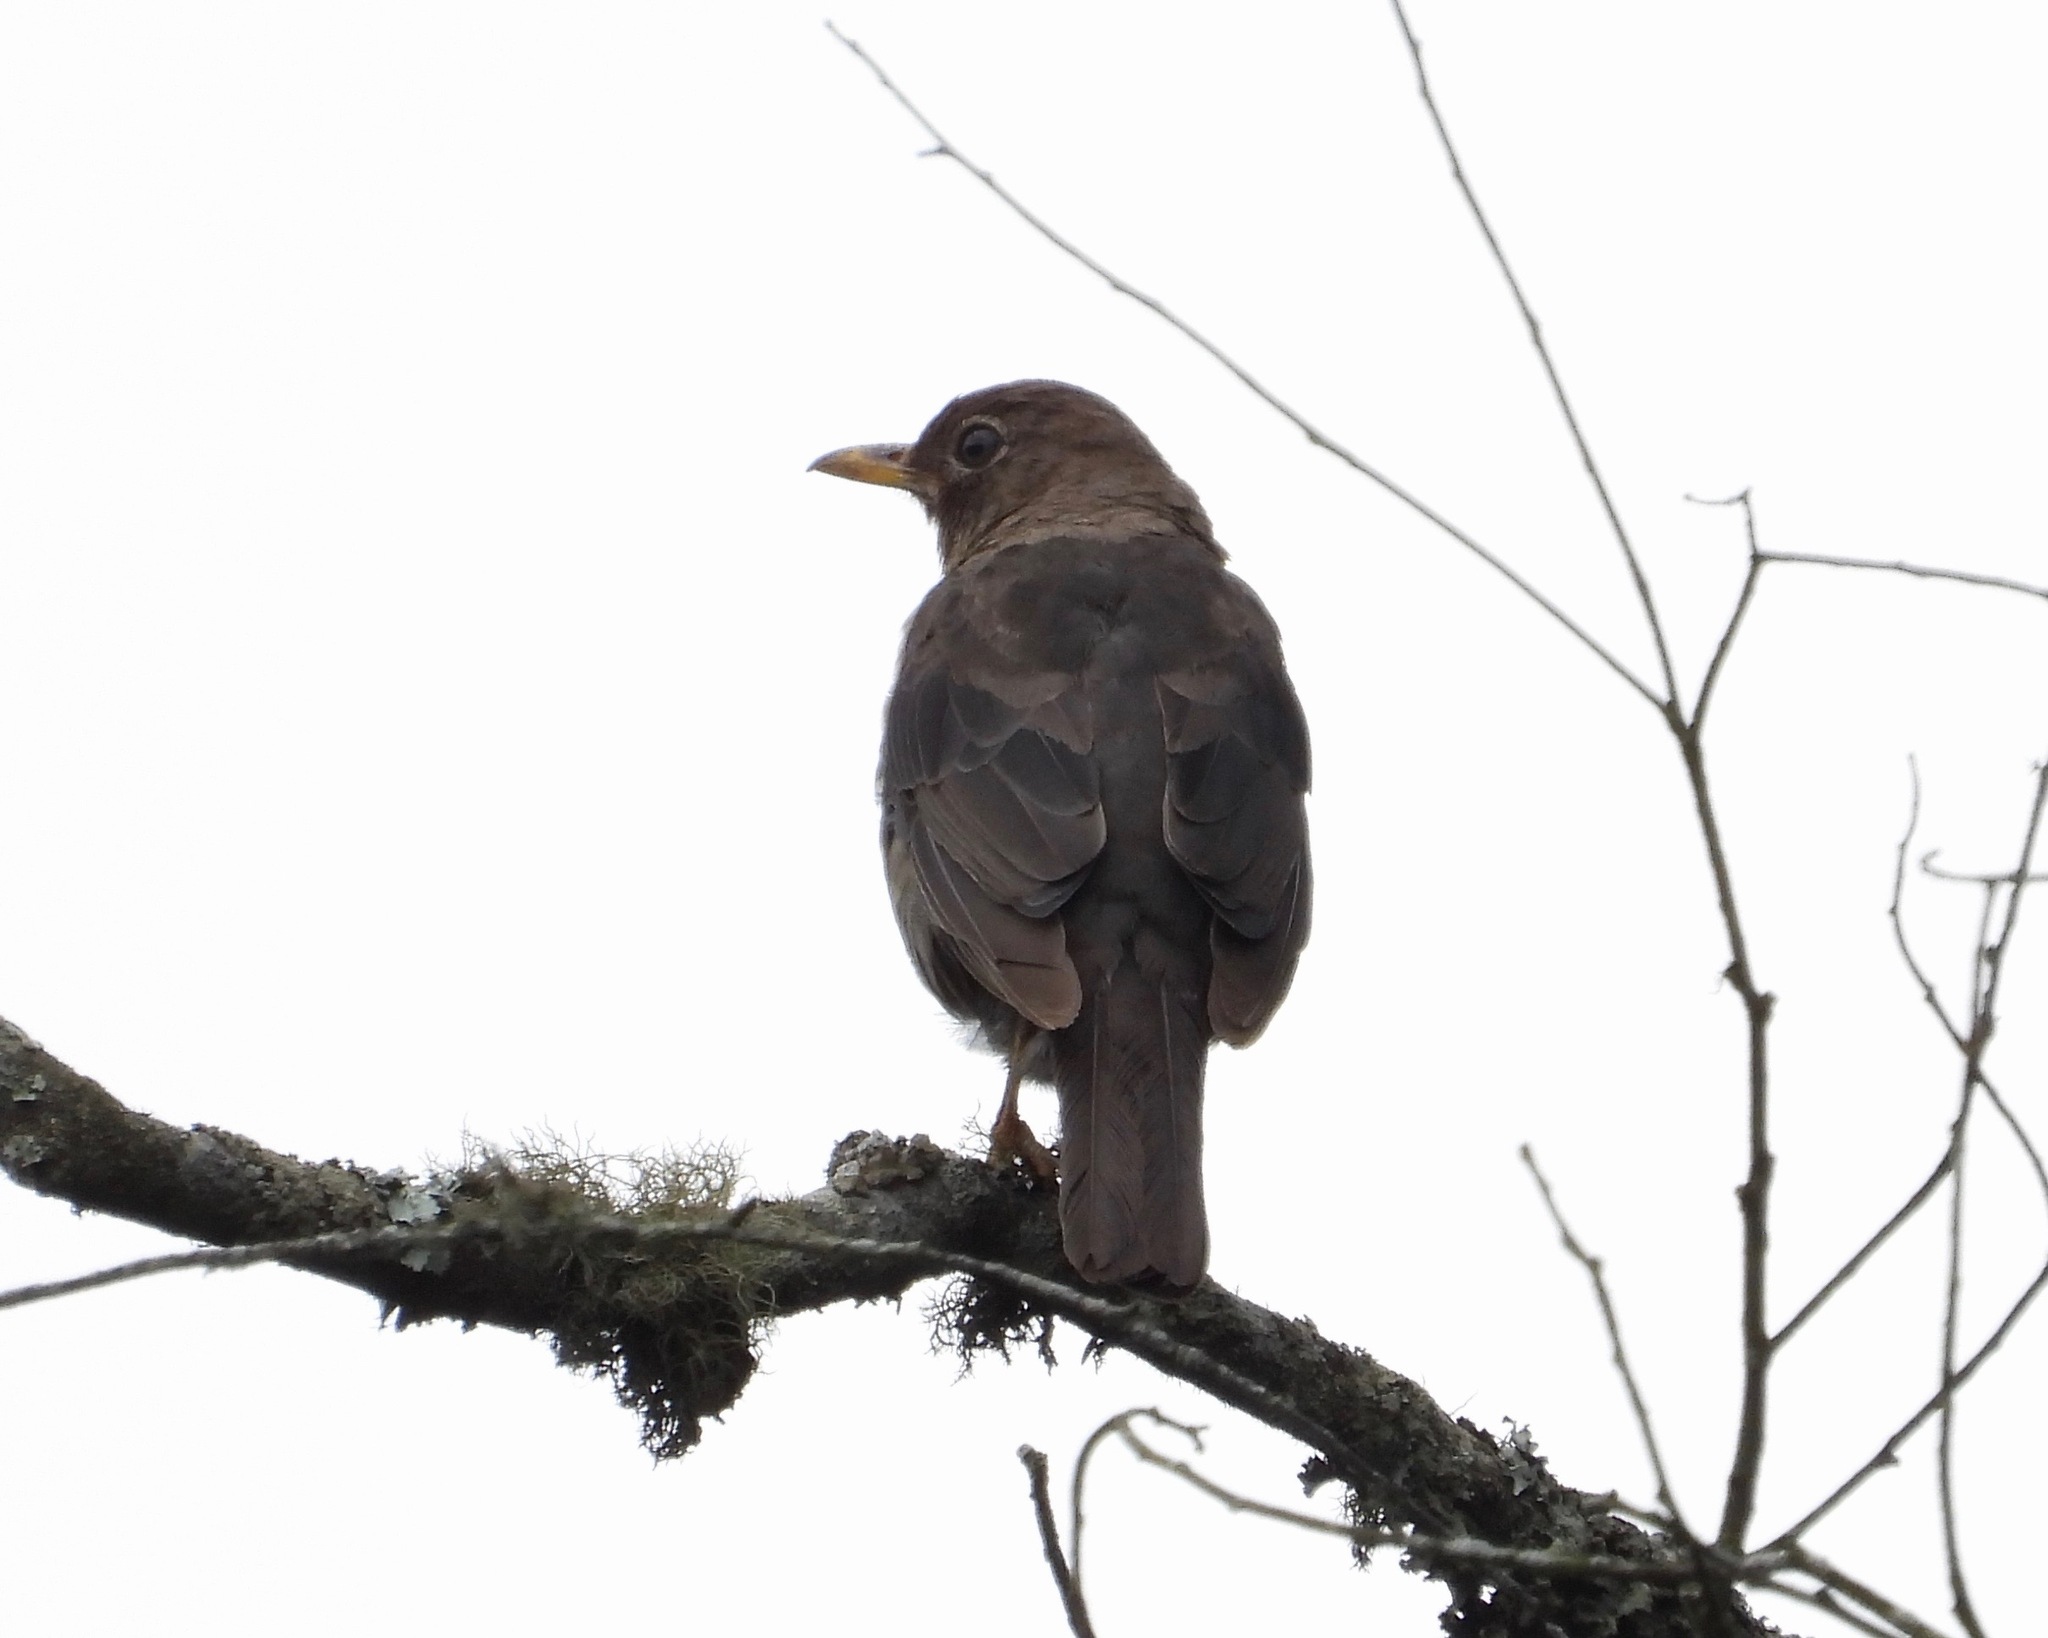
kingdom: Animalia
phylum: Chordata
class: Aves
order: Passeriformes
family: Turdidae
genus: Turdus
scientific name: Turdus rufitorques
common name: Rufous-collared thrush
